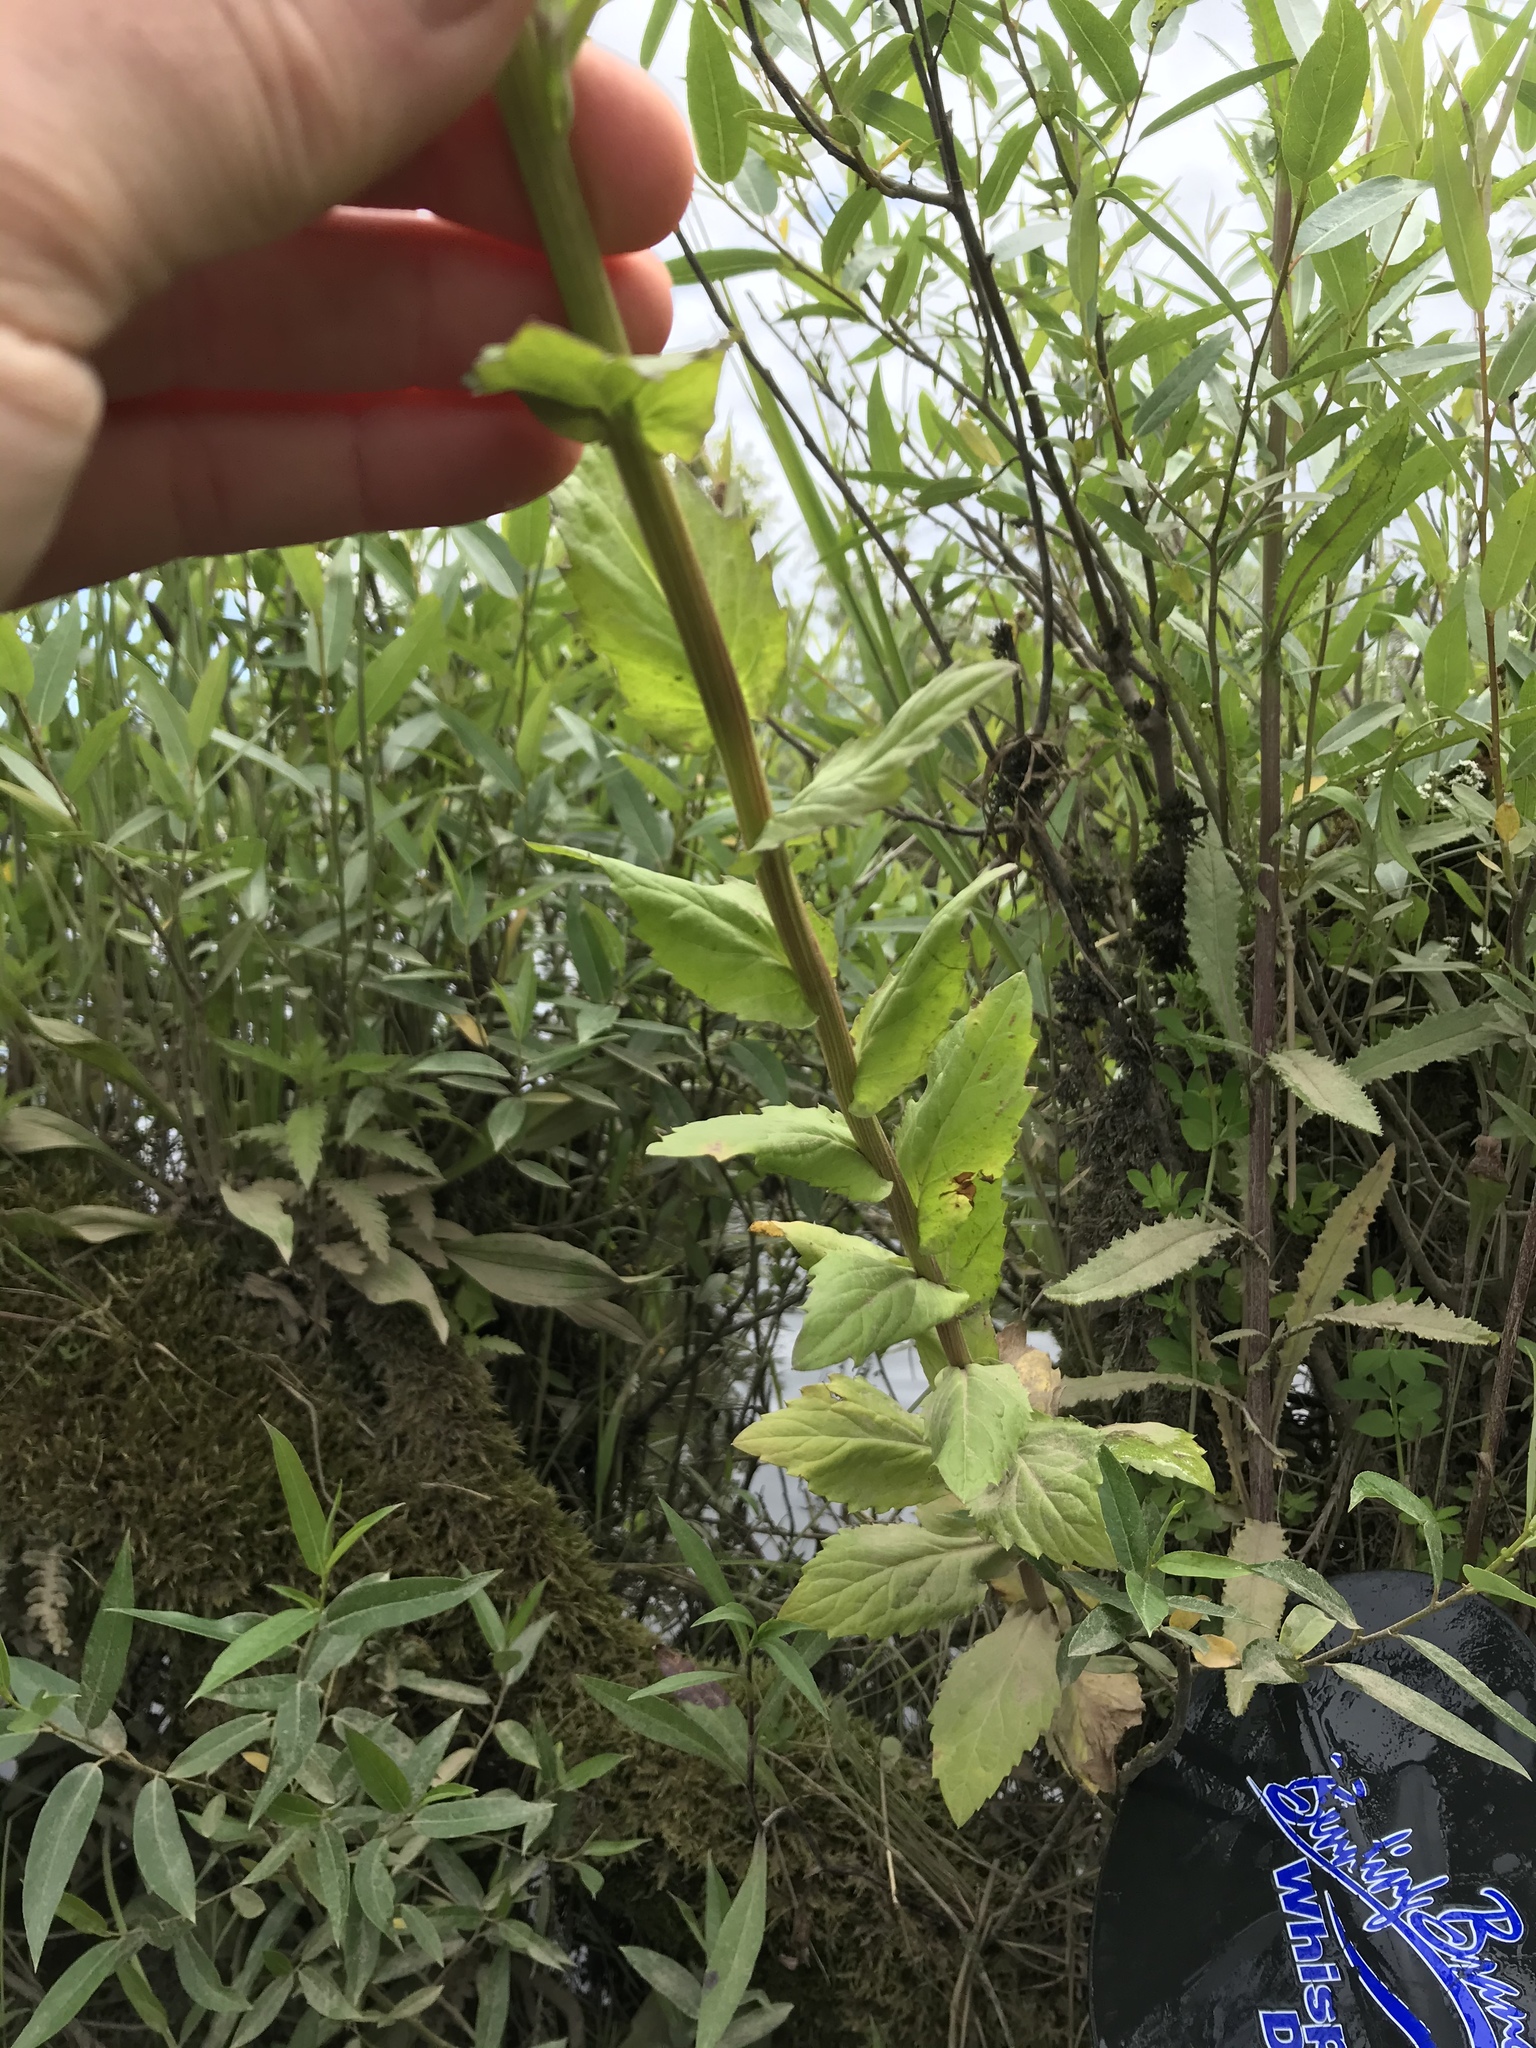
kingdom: Plantae
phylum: Tracheophyta
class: Magnoliopsida
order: Asterales
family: Asteraceae
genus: Erigeron
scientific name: Erigeron philadelphicus
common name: Robin's-plantain
